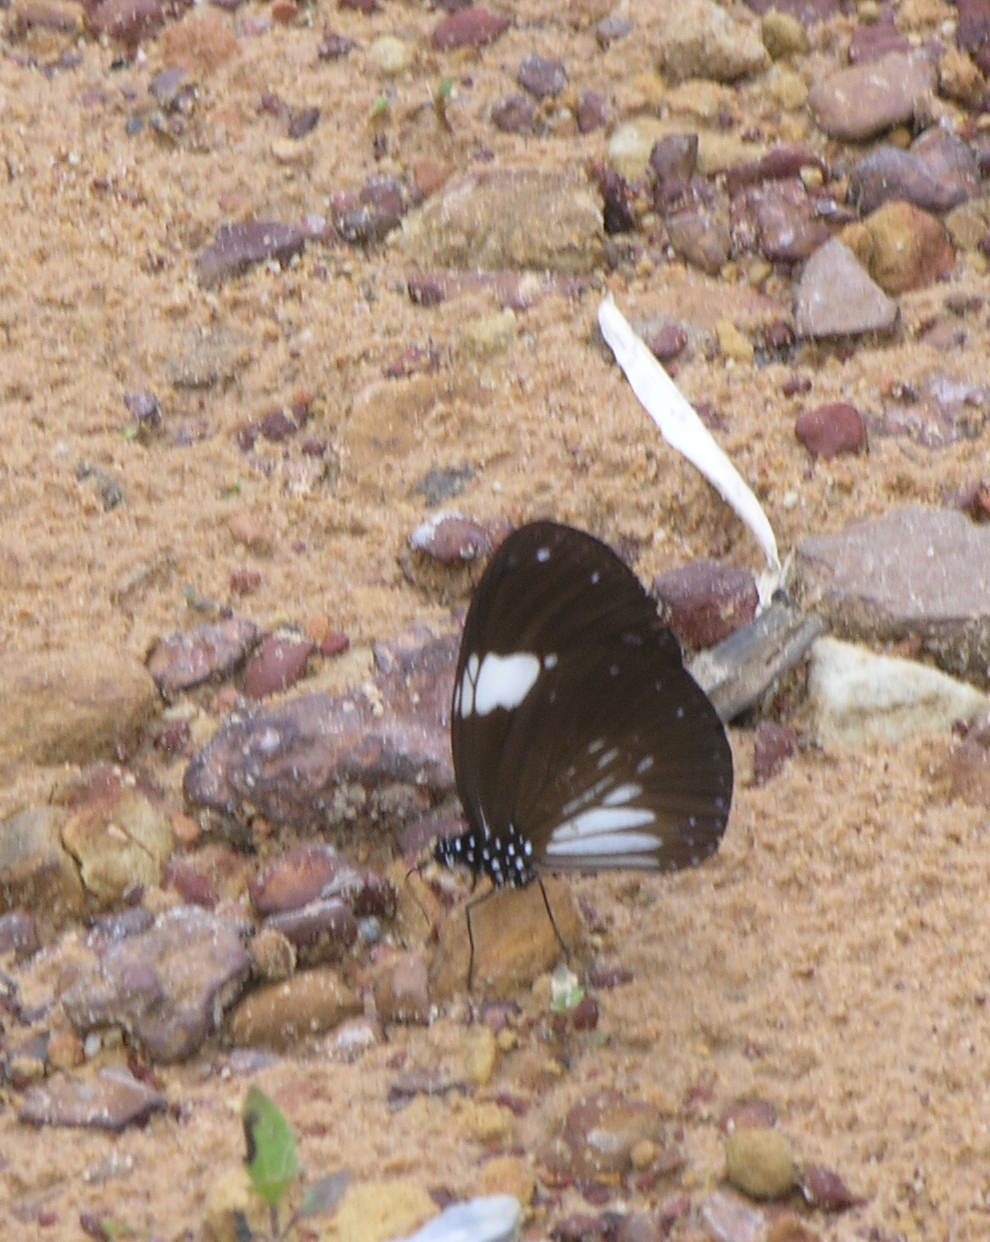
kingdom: Animalia
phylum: Arthropoda
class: Insecta
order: Lepidoptera
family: Nymphalidae
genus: Euploea
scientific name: Euploea radamanthus
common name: Magpie crow butterfly
